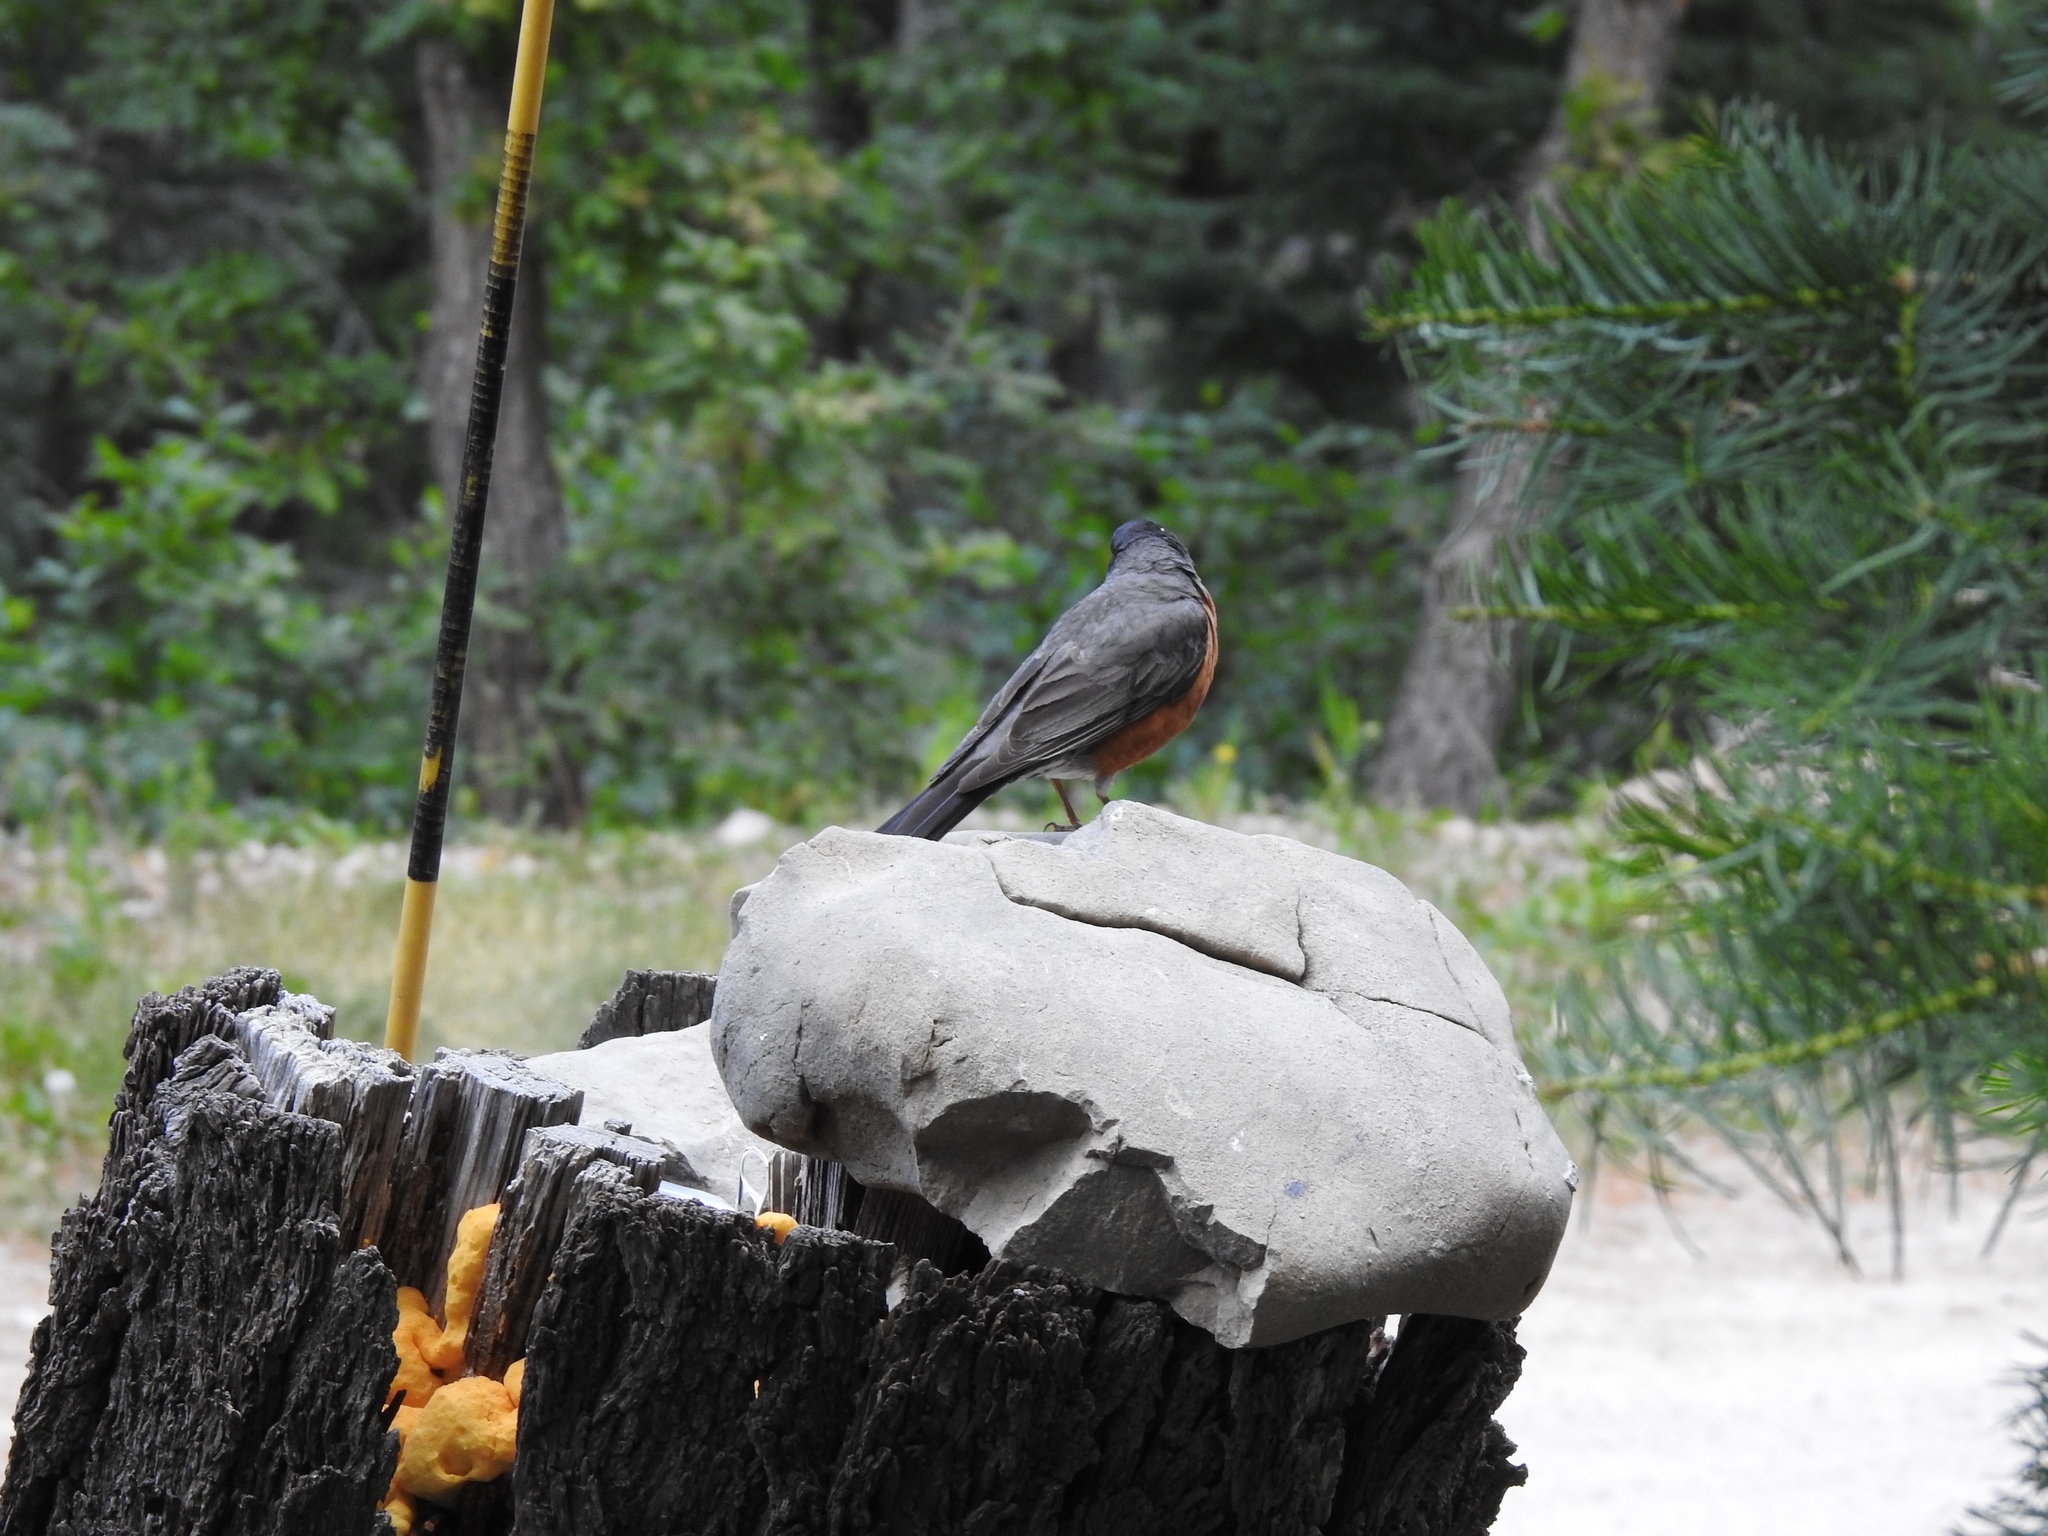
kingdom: Animalia
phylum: Chordata
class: Aves
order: Passeriformes
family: Turdidae
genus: Turdus
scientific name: Turdus migratorius
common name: American robin
